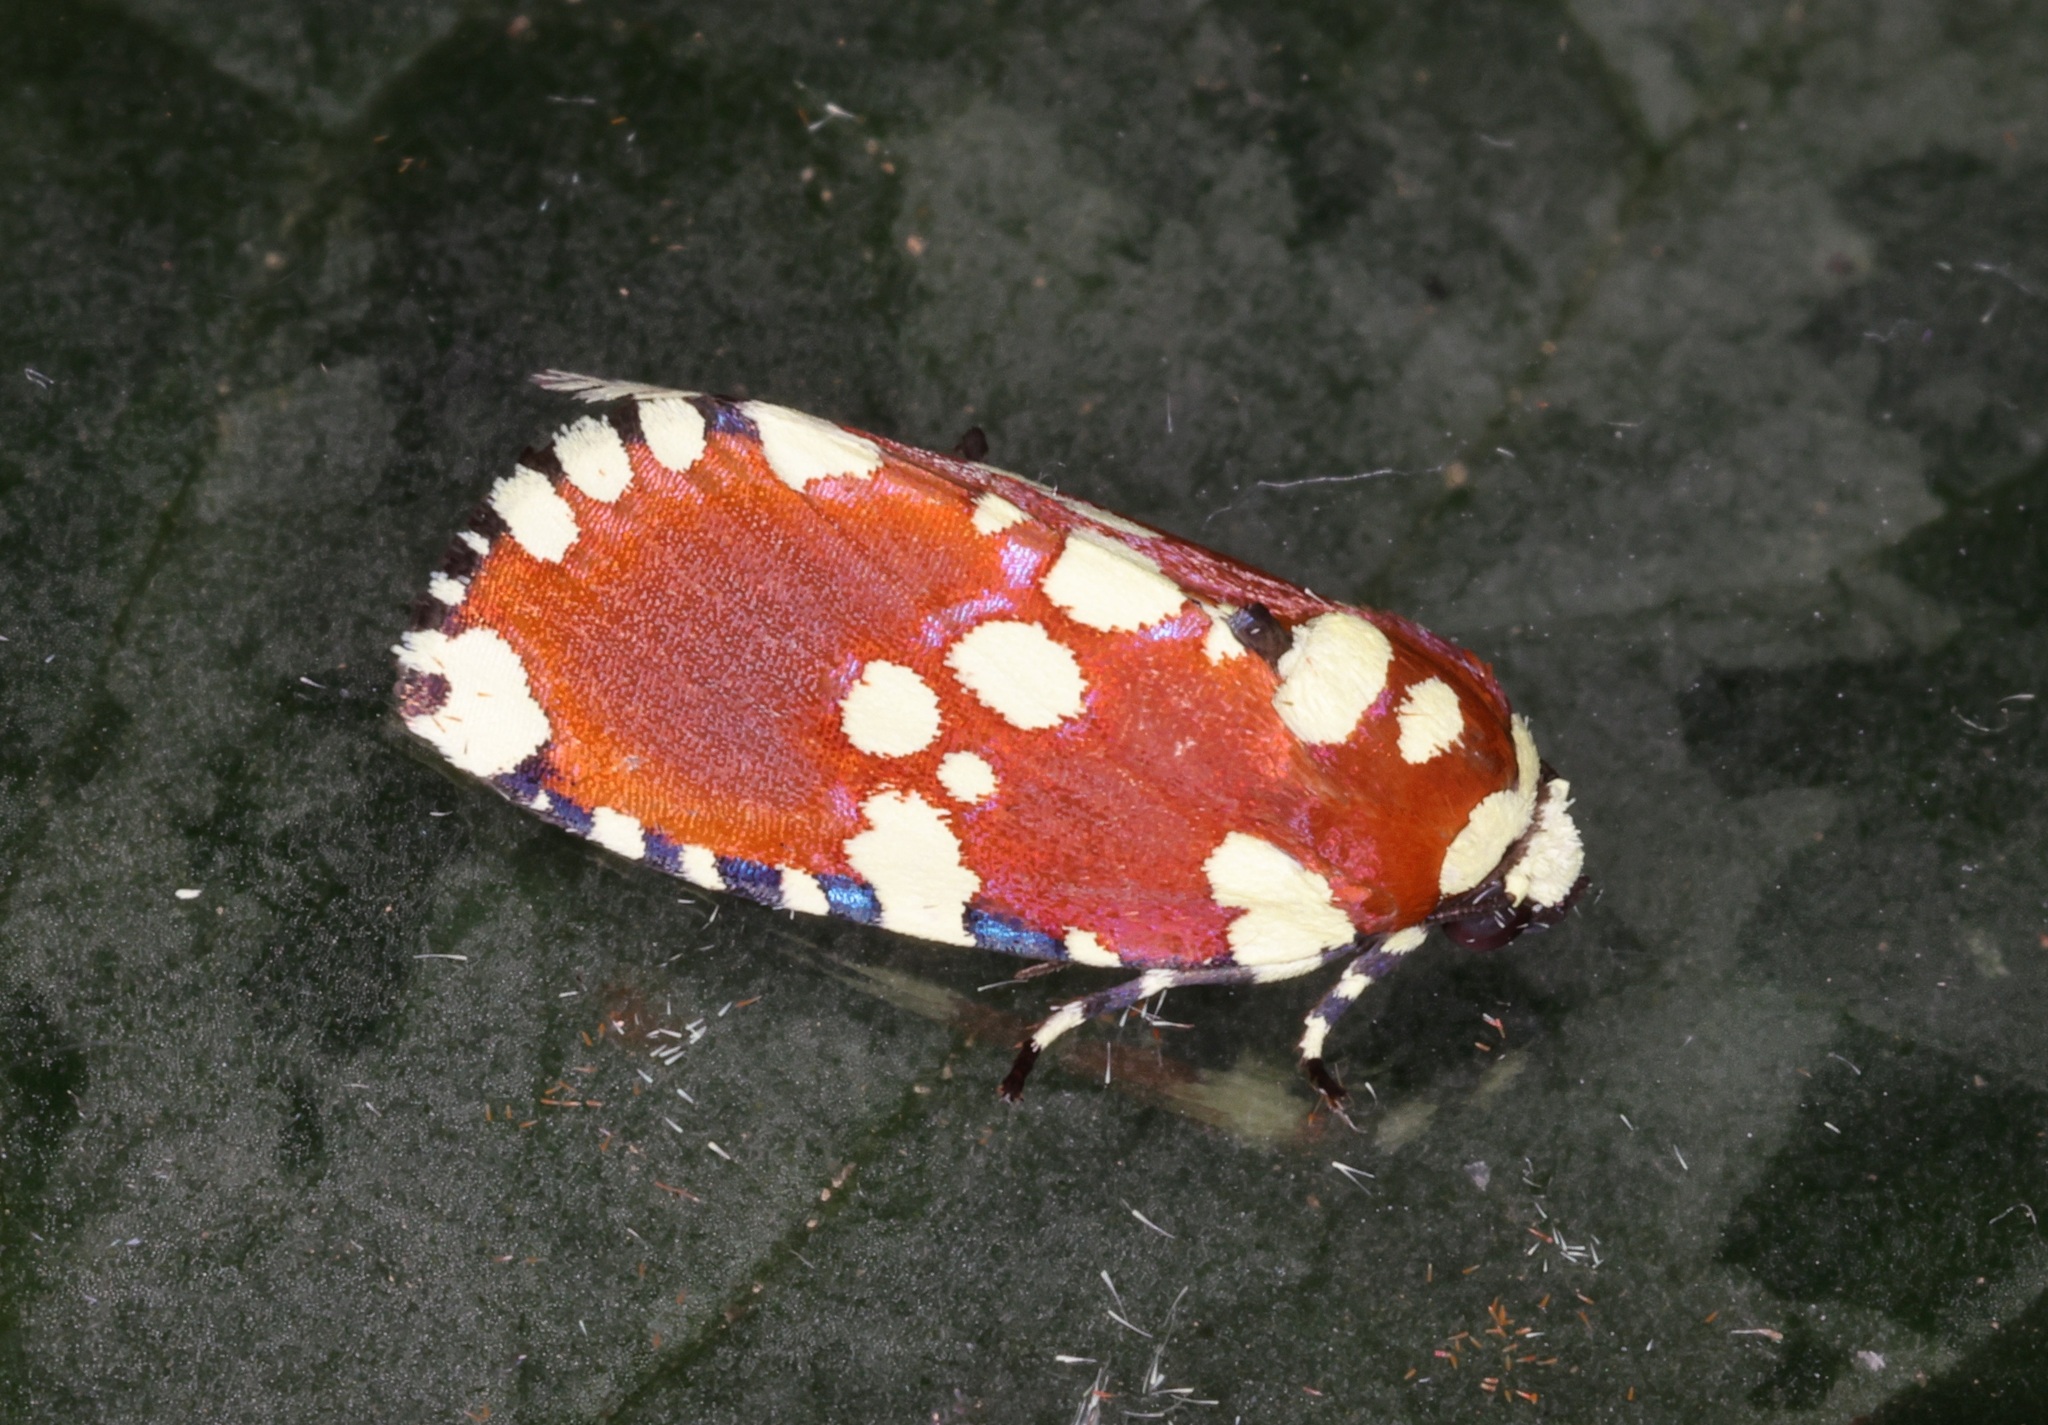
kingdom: Animalia
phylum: Arthropoda
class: Insecta
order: Lepidoptera
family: Noctuidae
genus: Yepcalphis
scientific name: Yepcalphis dilectissima
